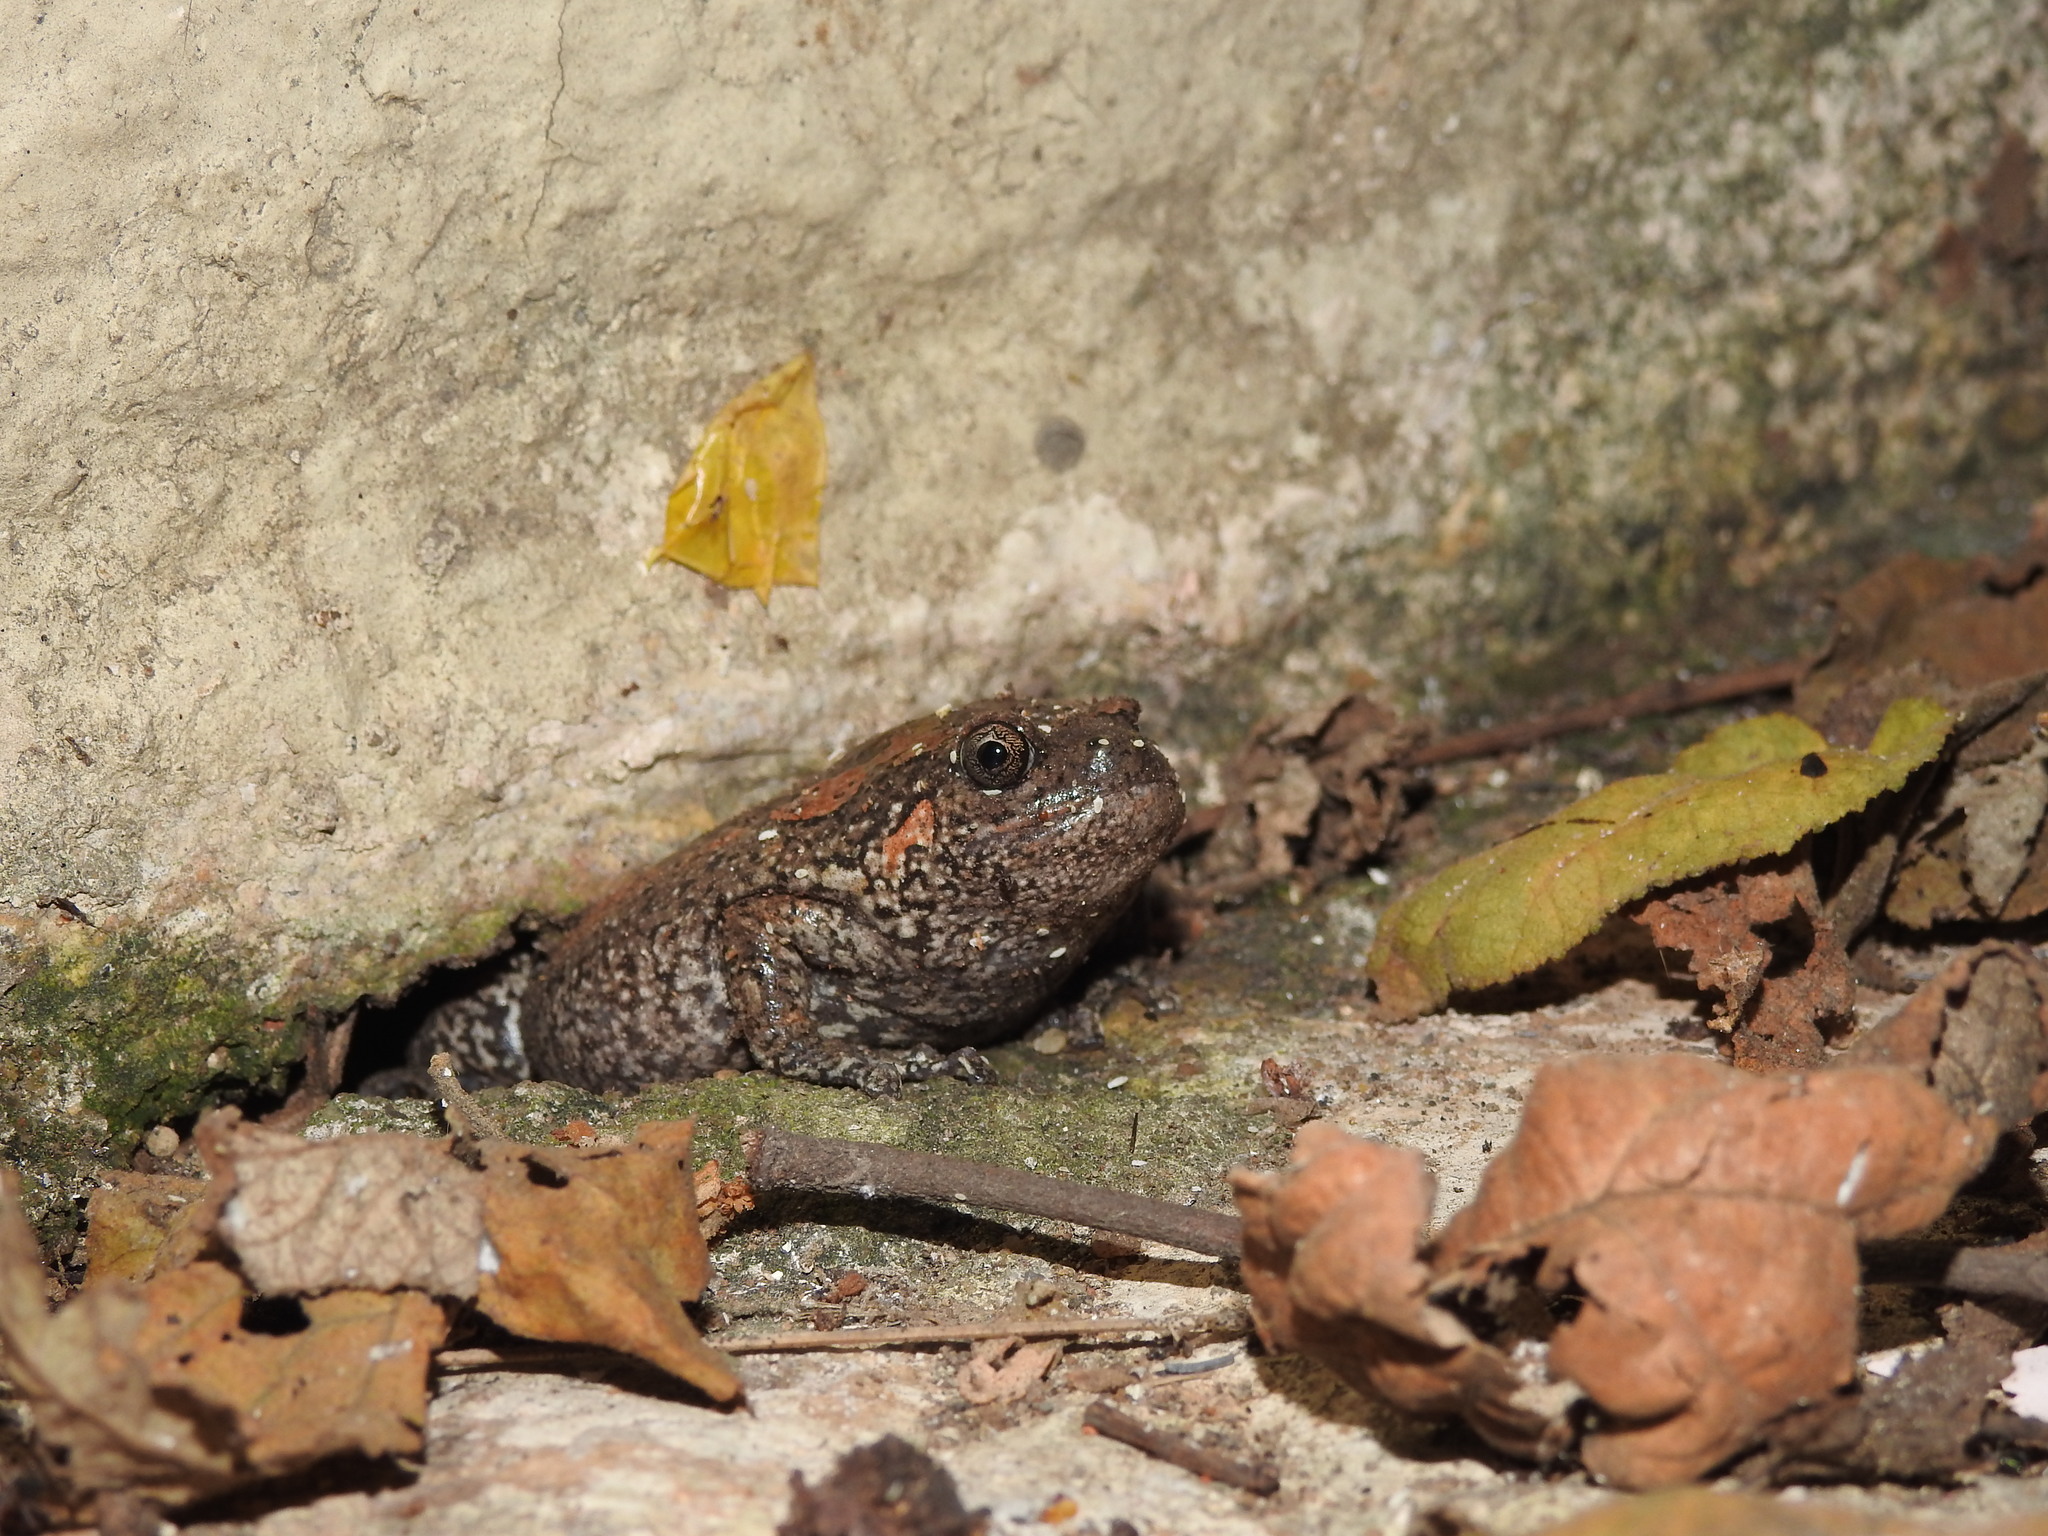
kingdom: Animalia
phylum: Chordata
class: Amphibia
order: Anura
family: Microhylidae
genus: Uperodon
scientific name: Uperodon taprobanicus
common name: Ceylon kaloula
